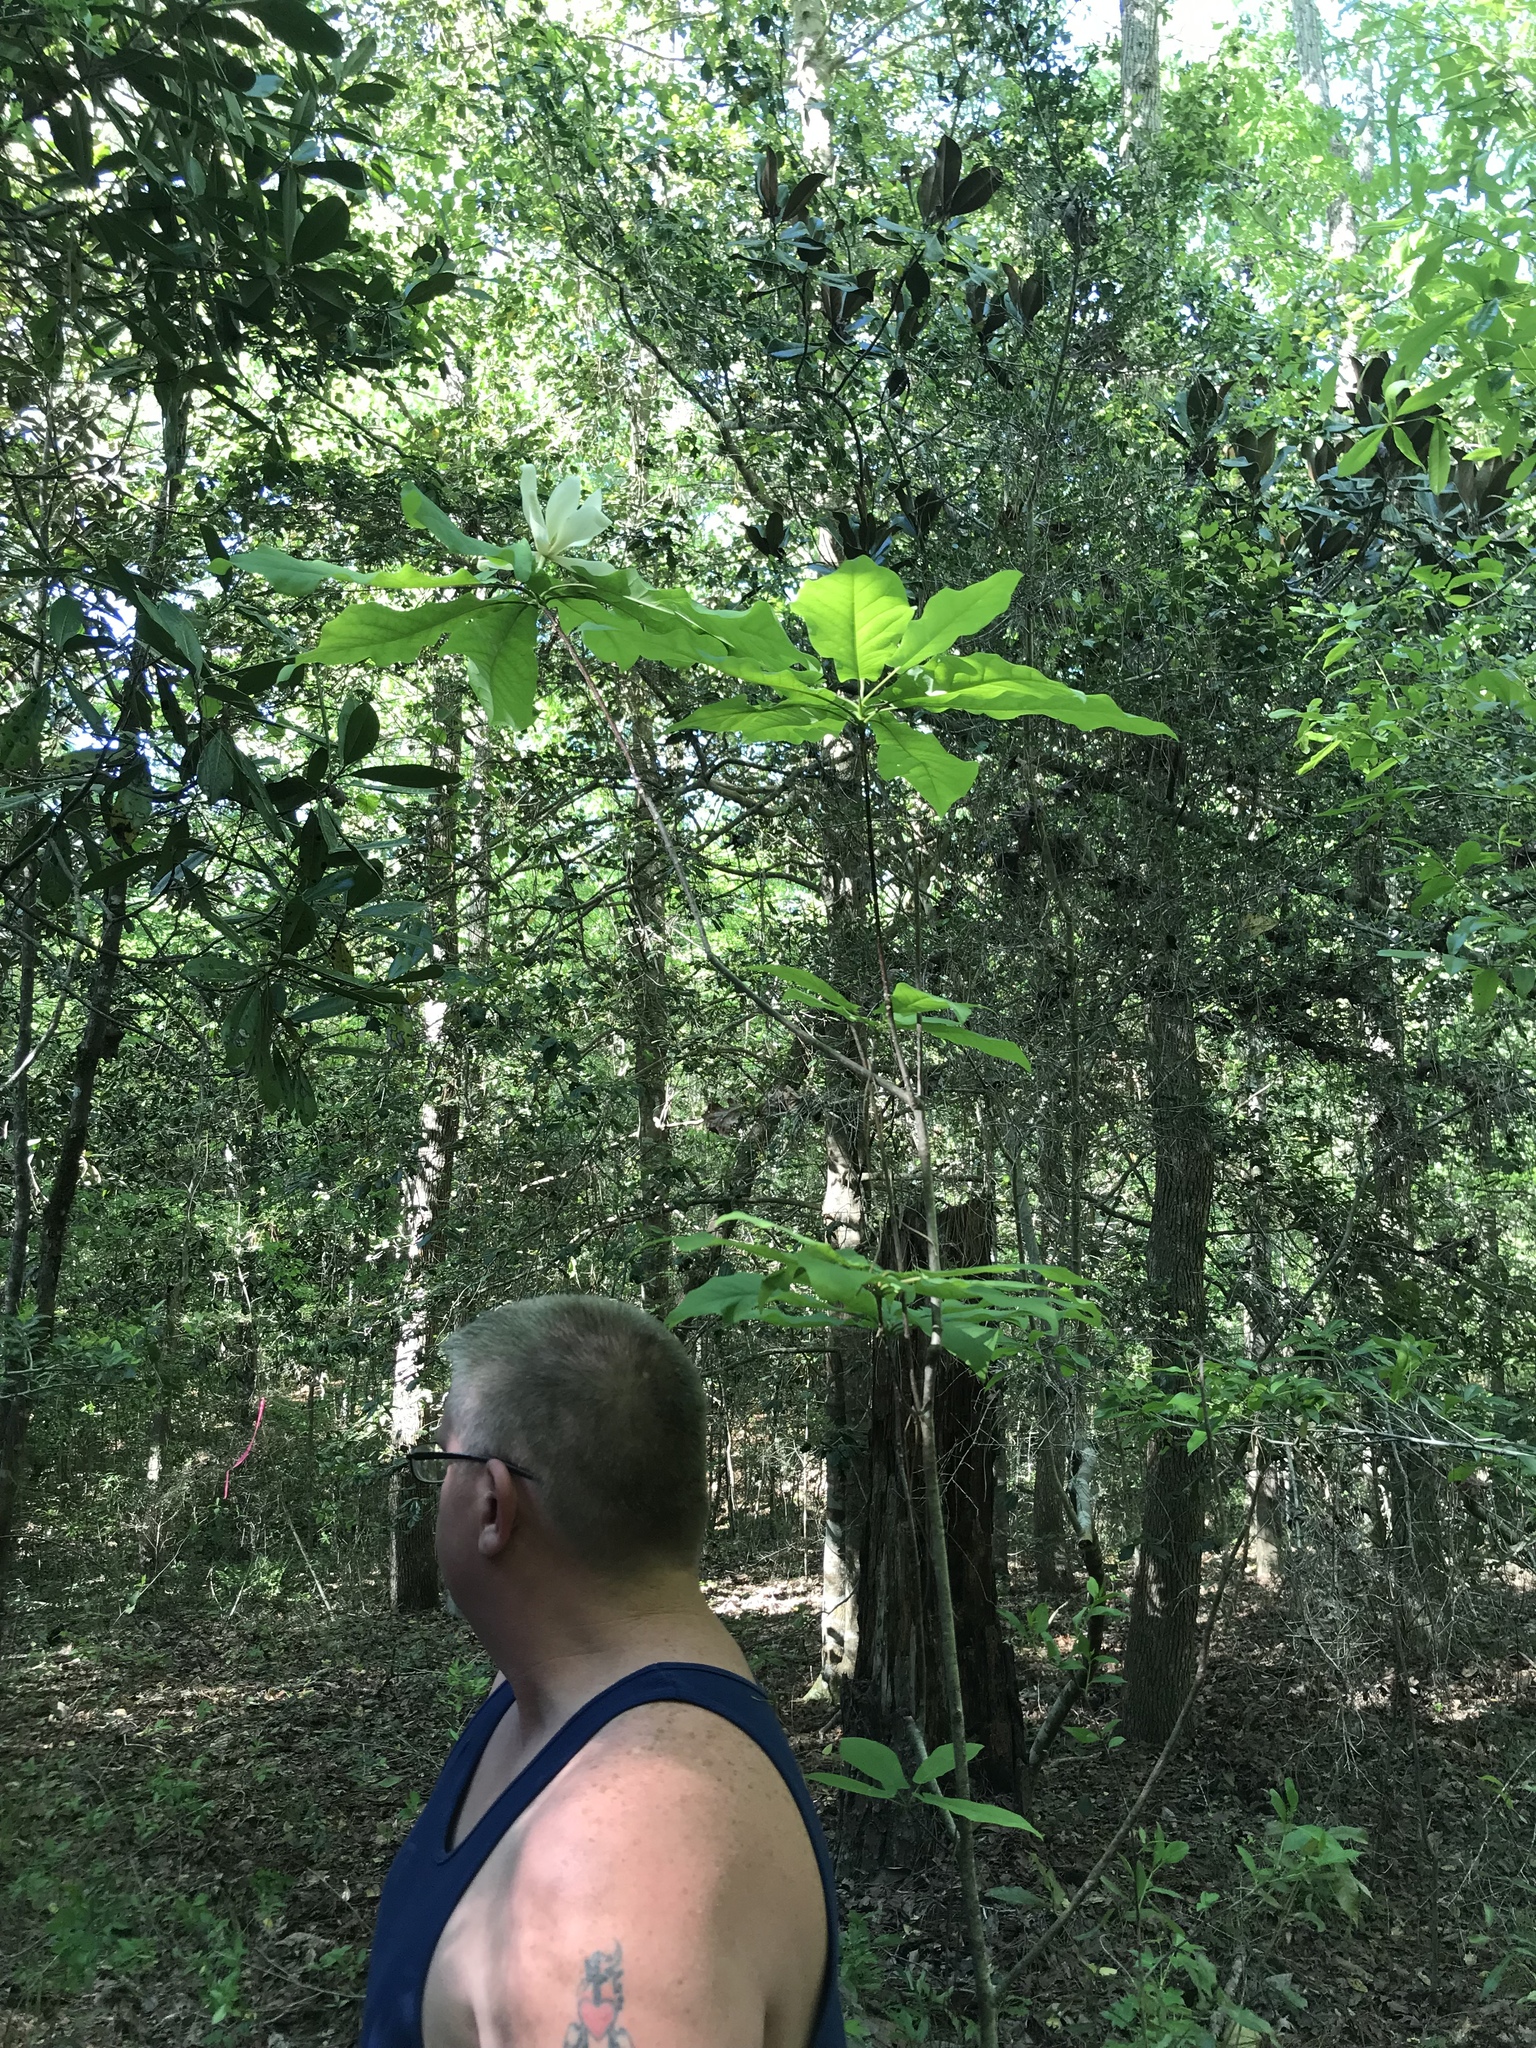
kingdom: Plantae
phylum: Tracheophyta
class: Magnoliopsida
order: Magnoliales
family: Magnoliaceae
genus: Magnolia
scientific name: Magnolia fraseri
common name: Fraser's magnolia
